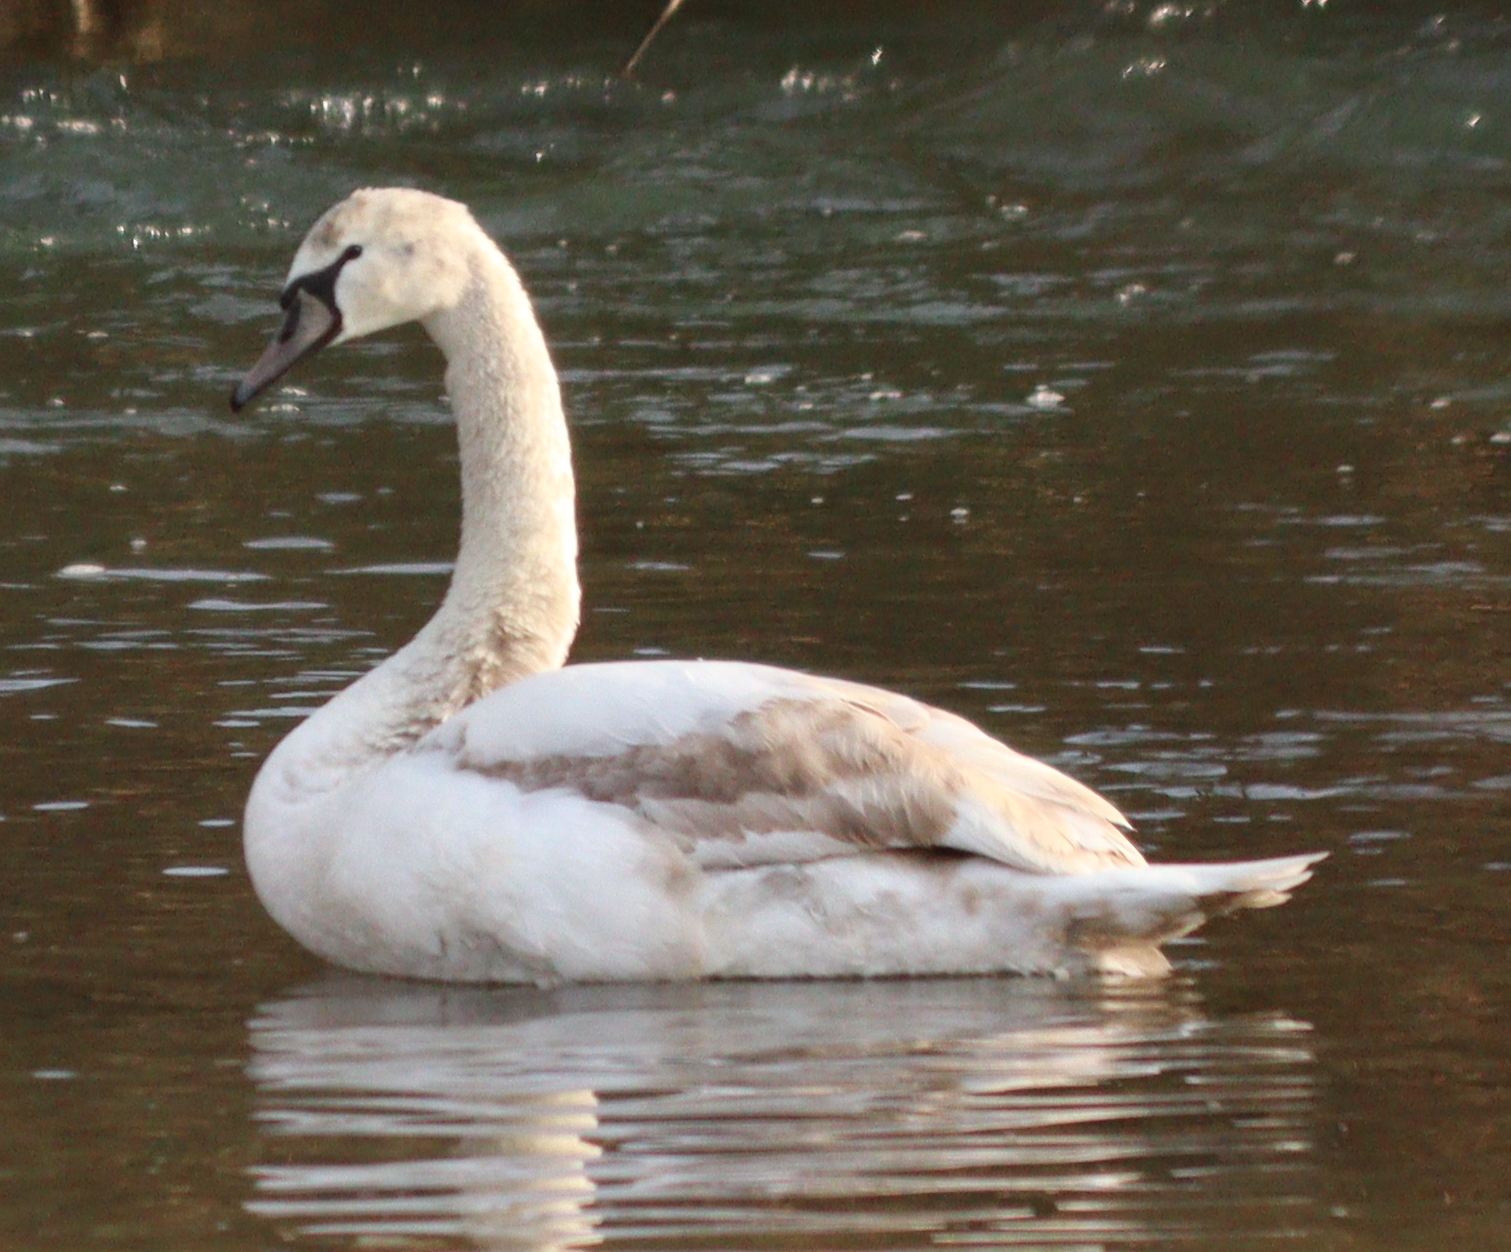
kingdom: Animalia
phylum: Chordata
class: Aves
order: Anseriformes
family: Anatidae
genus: Cygnus
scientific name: Cygnus olor
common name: Mute swan
